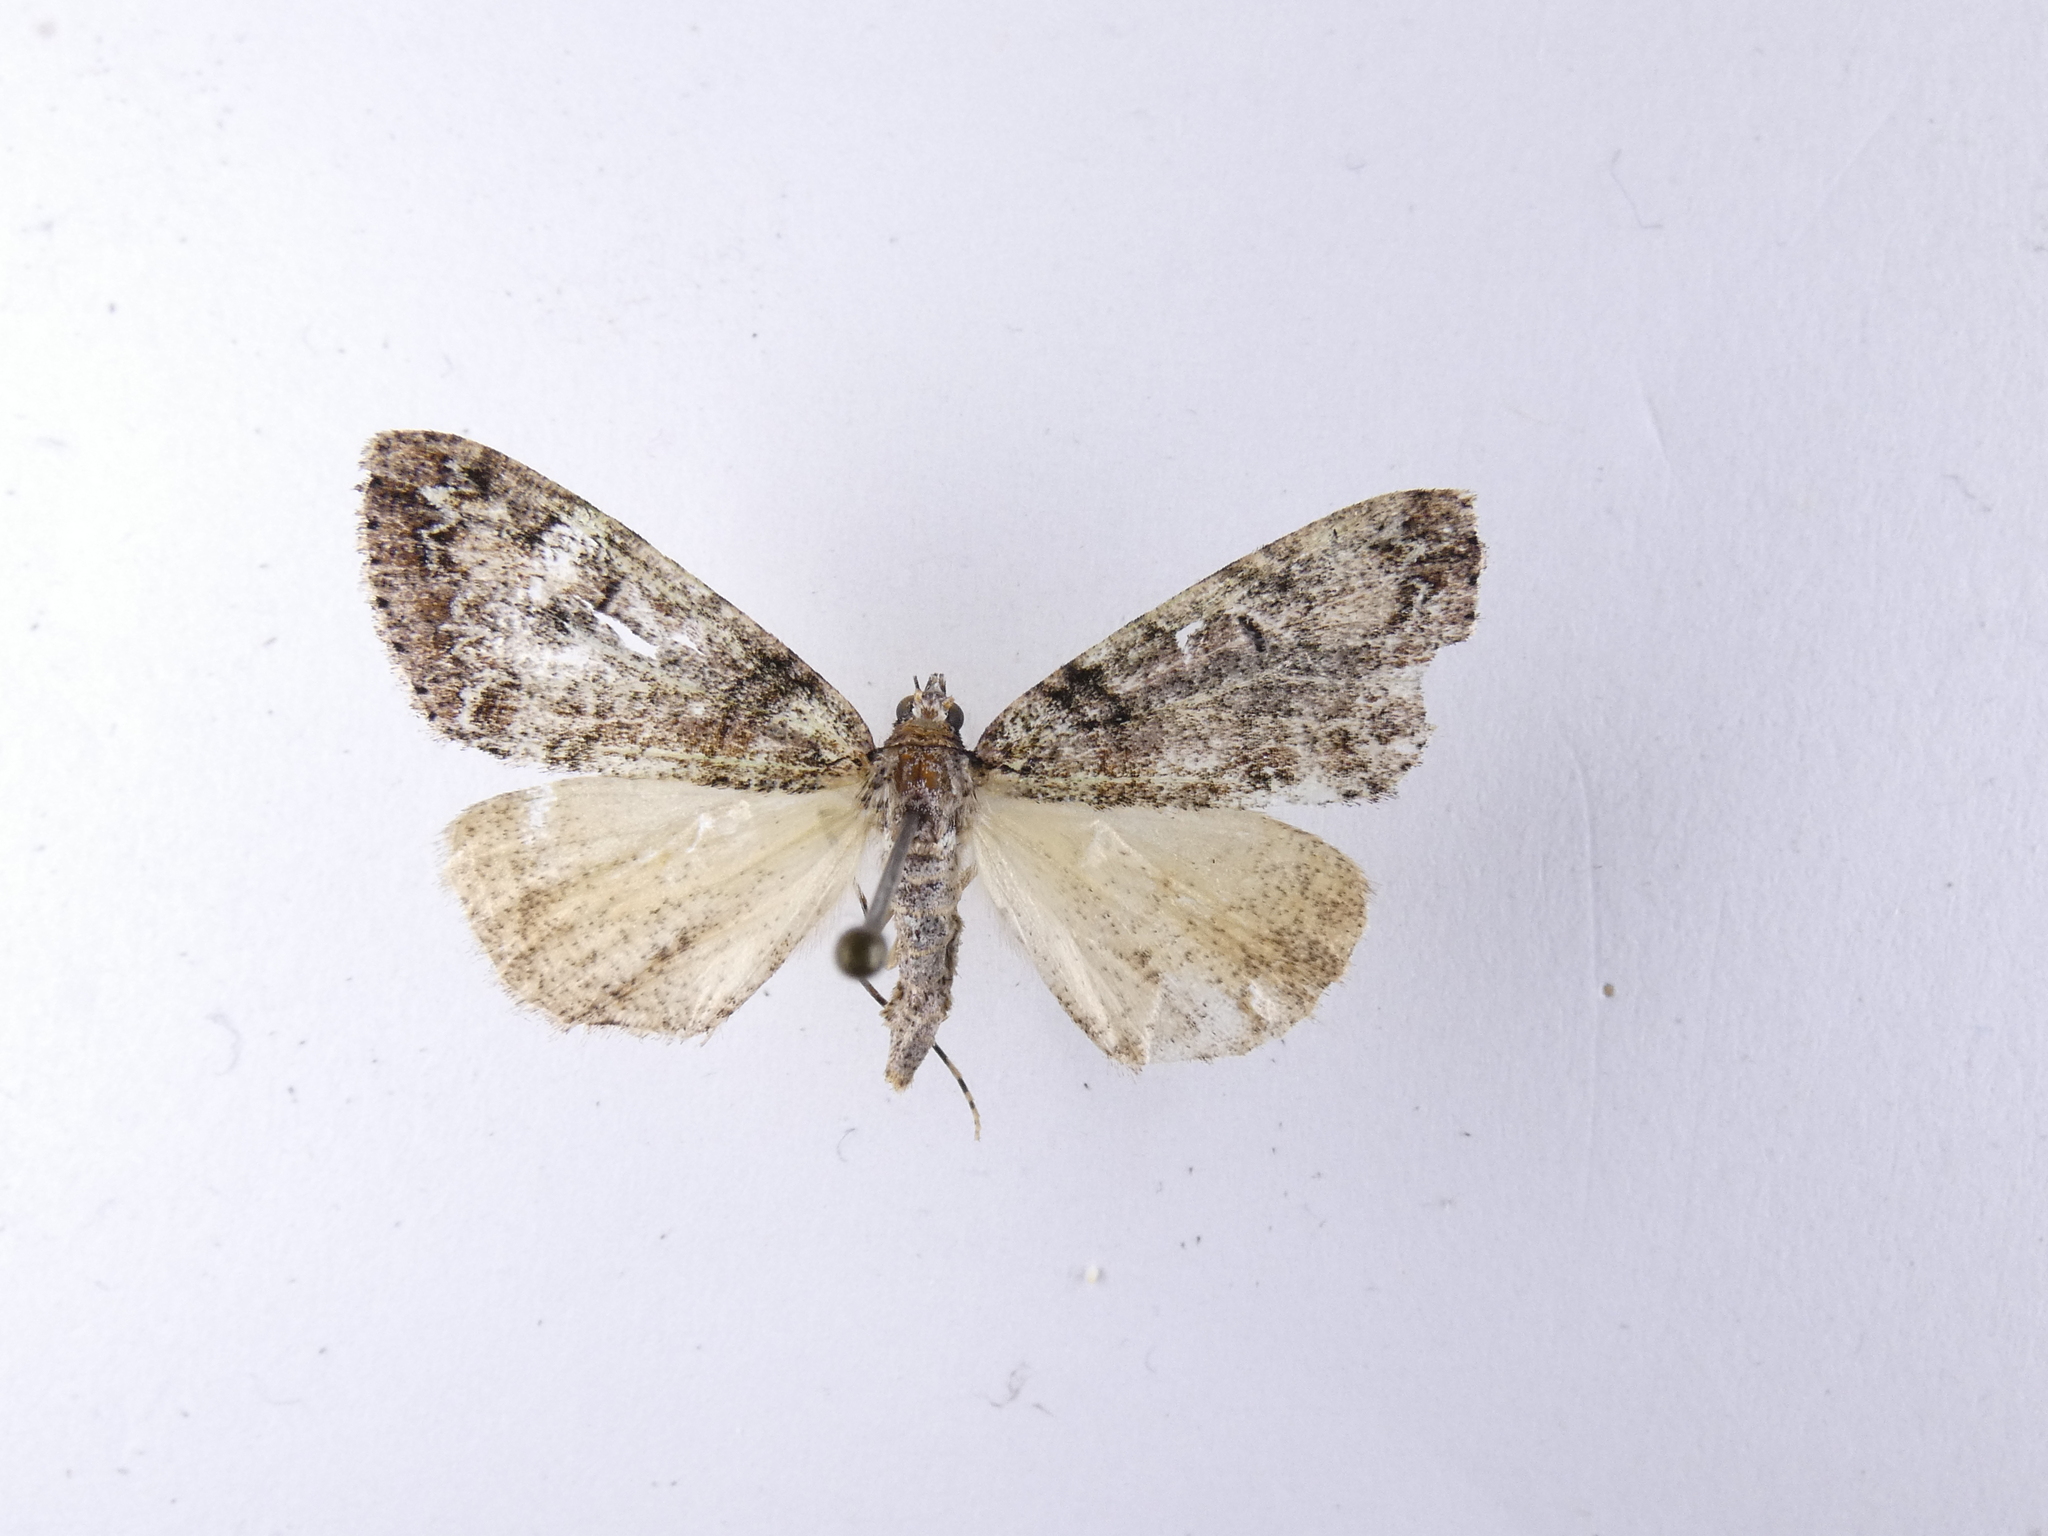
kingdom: Animalia
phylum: Arthropoda
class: Insecta
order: Lepidoptera
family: Geometridae
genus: Pseudocoremia
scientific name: Pseudocoremia suavis
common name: Common forest looper
